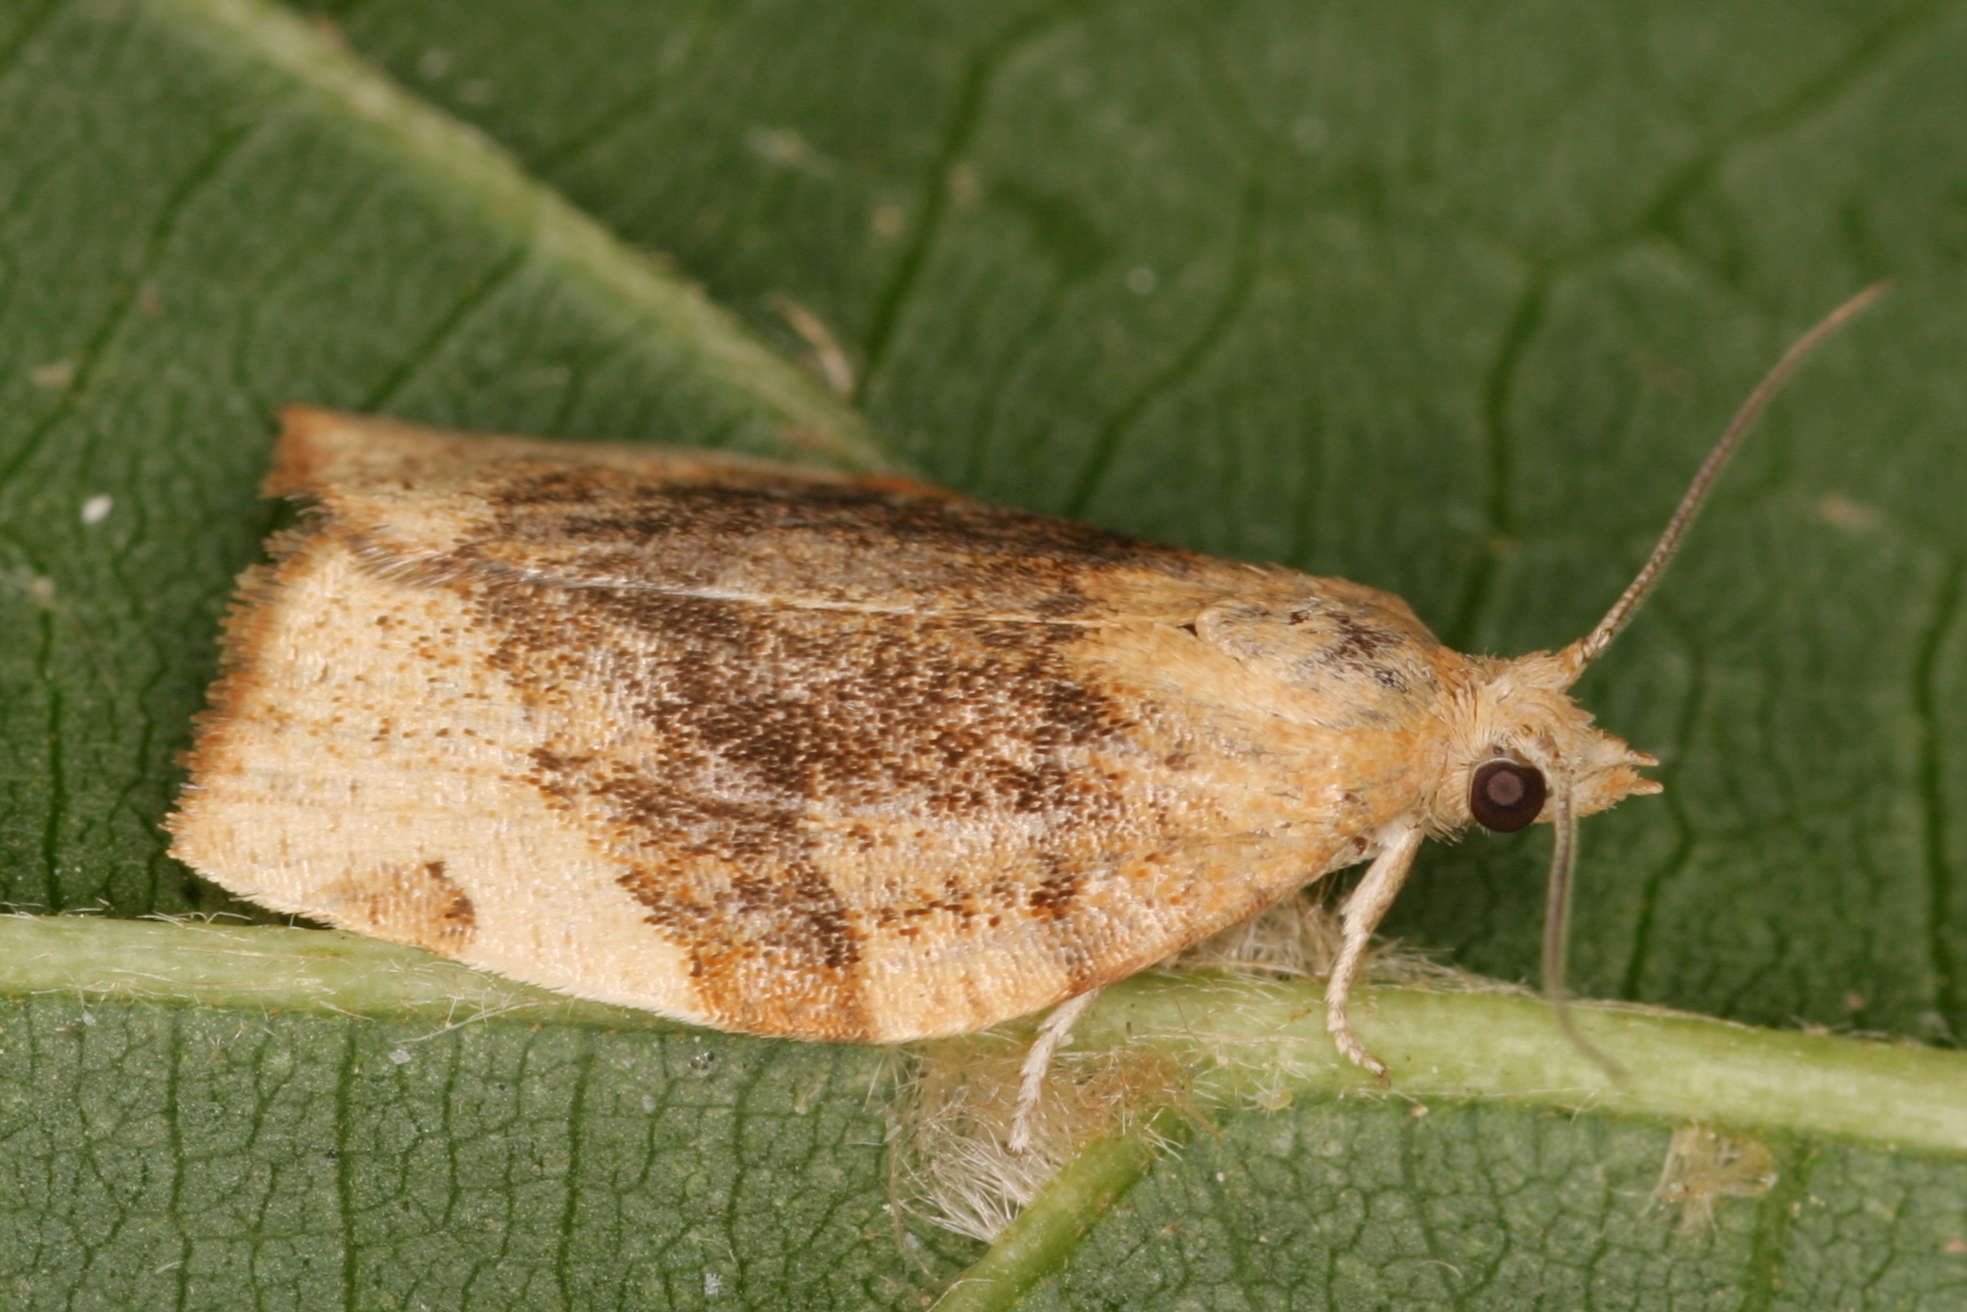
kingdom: Animalia
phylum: Arthropoda
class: Insecta
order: Lepidoptera
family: Tortricidae
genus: Pandemis
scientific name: Pandemis cerasana
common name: Barred fruit-tree tortrix
